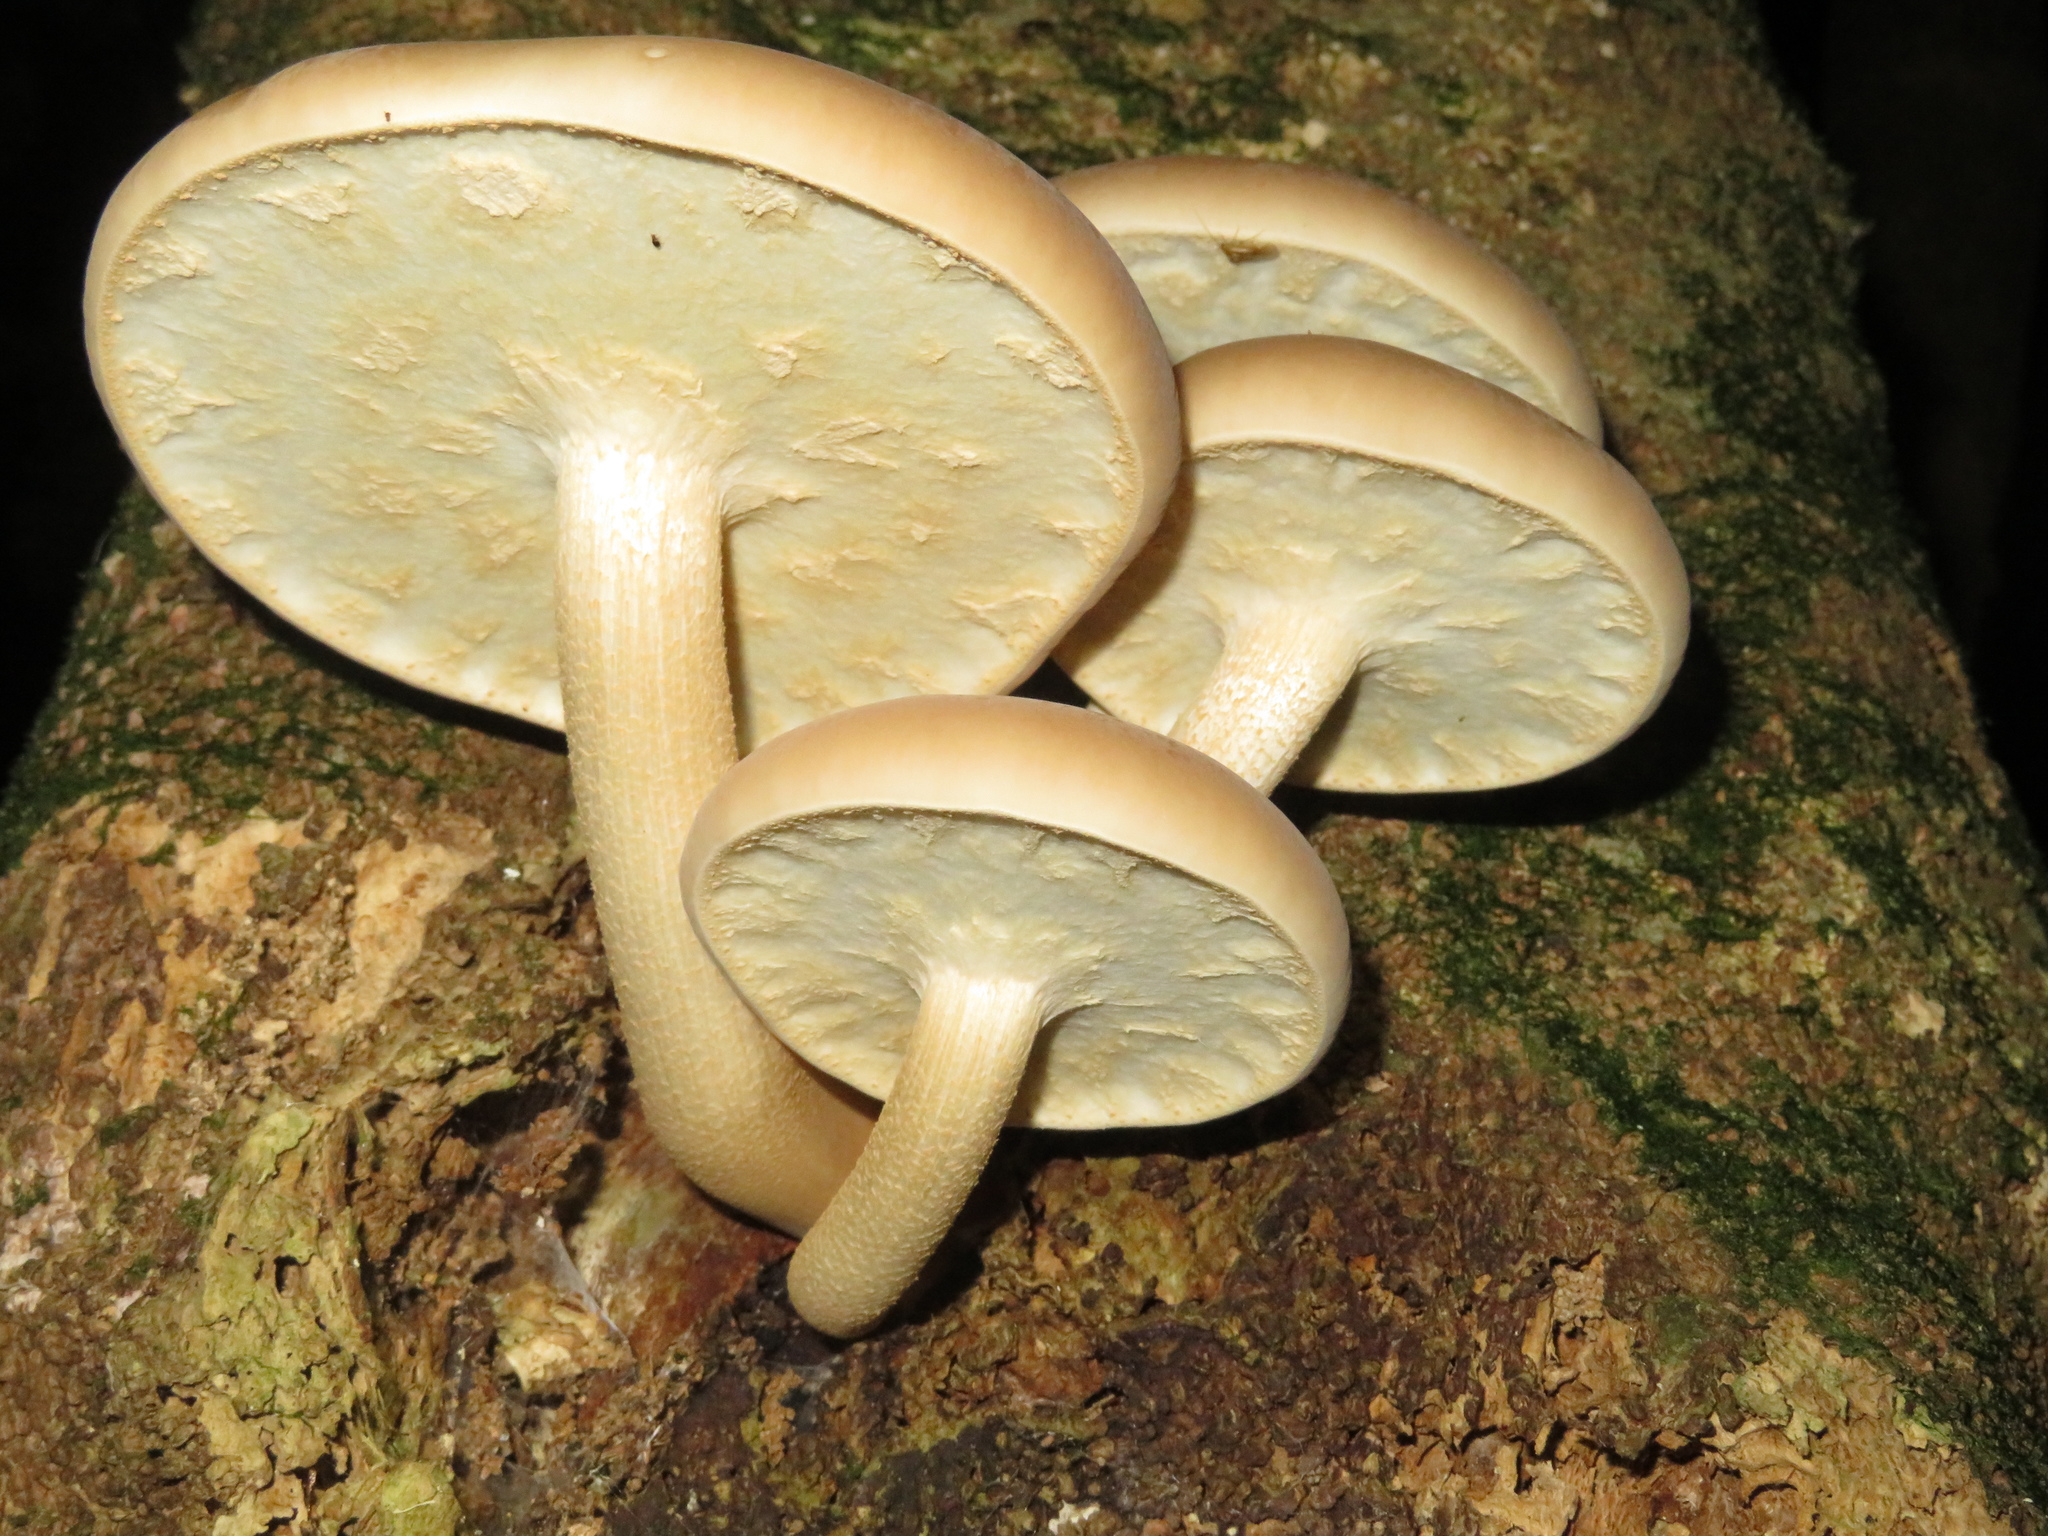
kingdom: Fungi
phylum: Basidiomycota
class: Agaricomycetes
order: Agaricales
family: Tubariaceae
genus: Cyclocybe
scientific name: Cyclocybe parasitica
